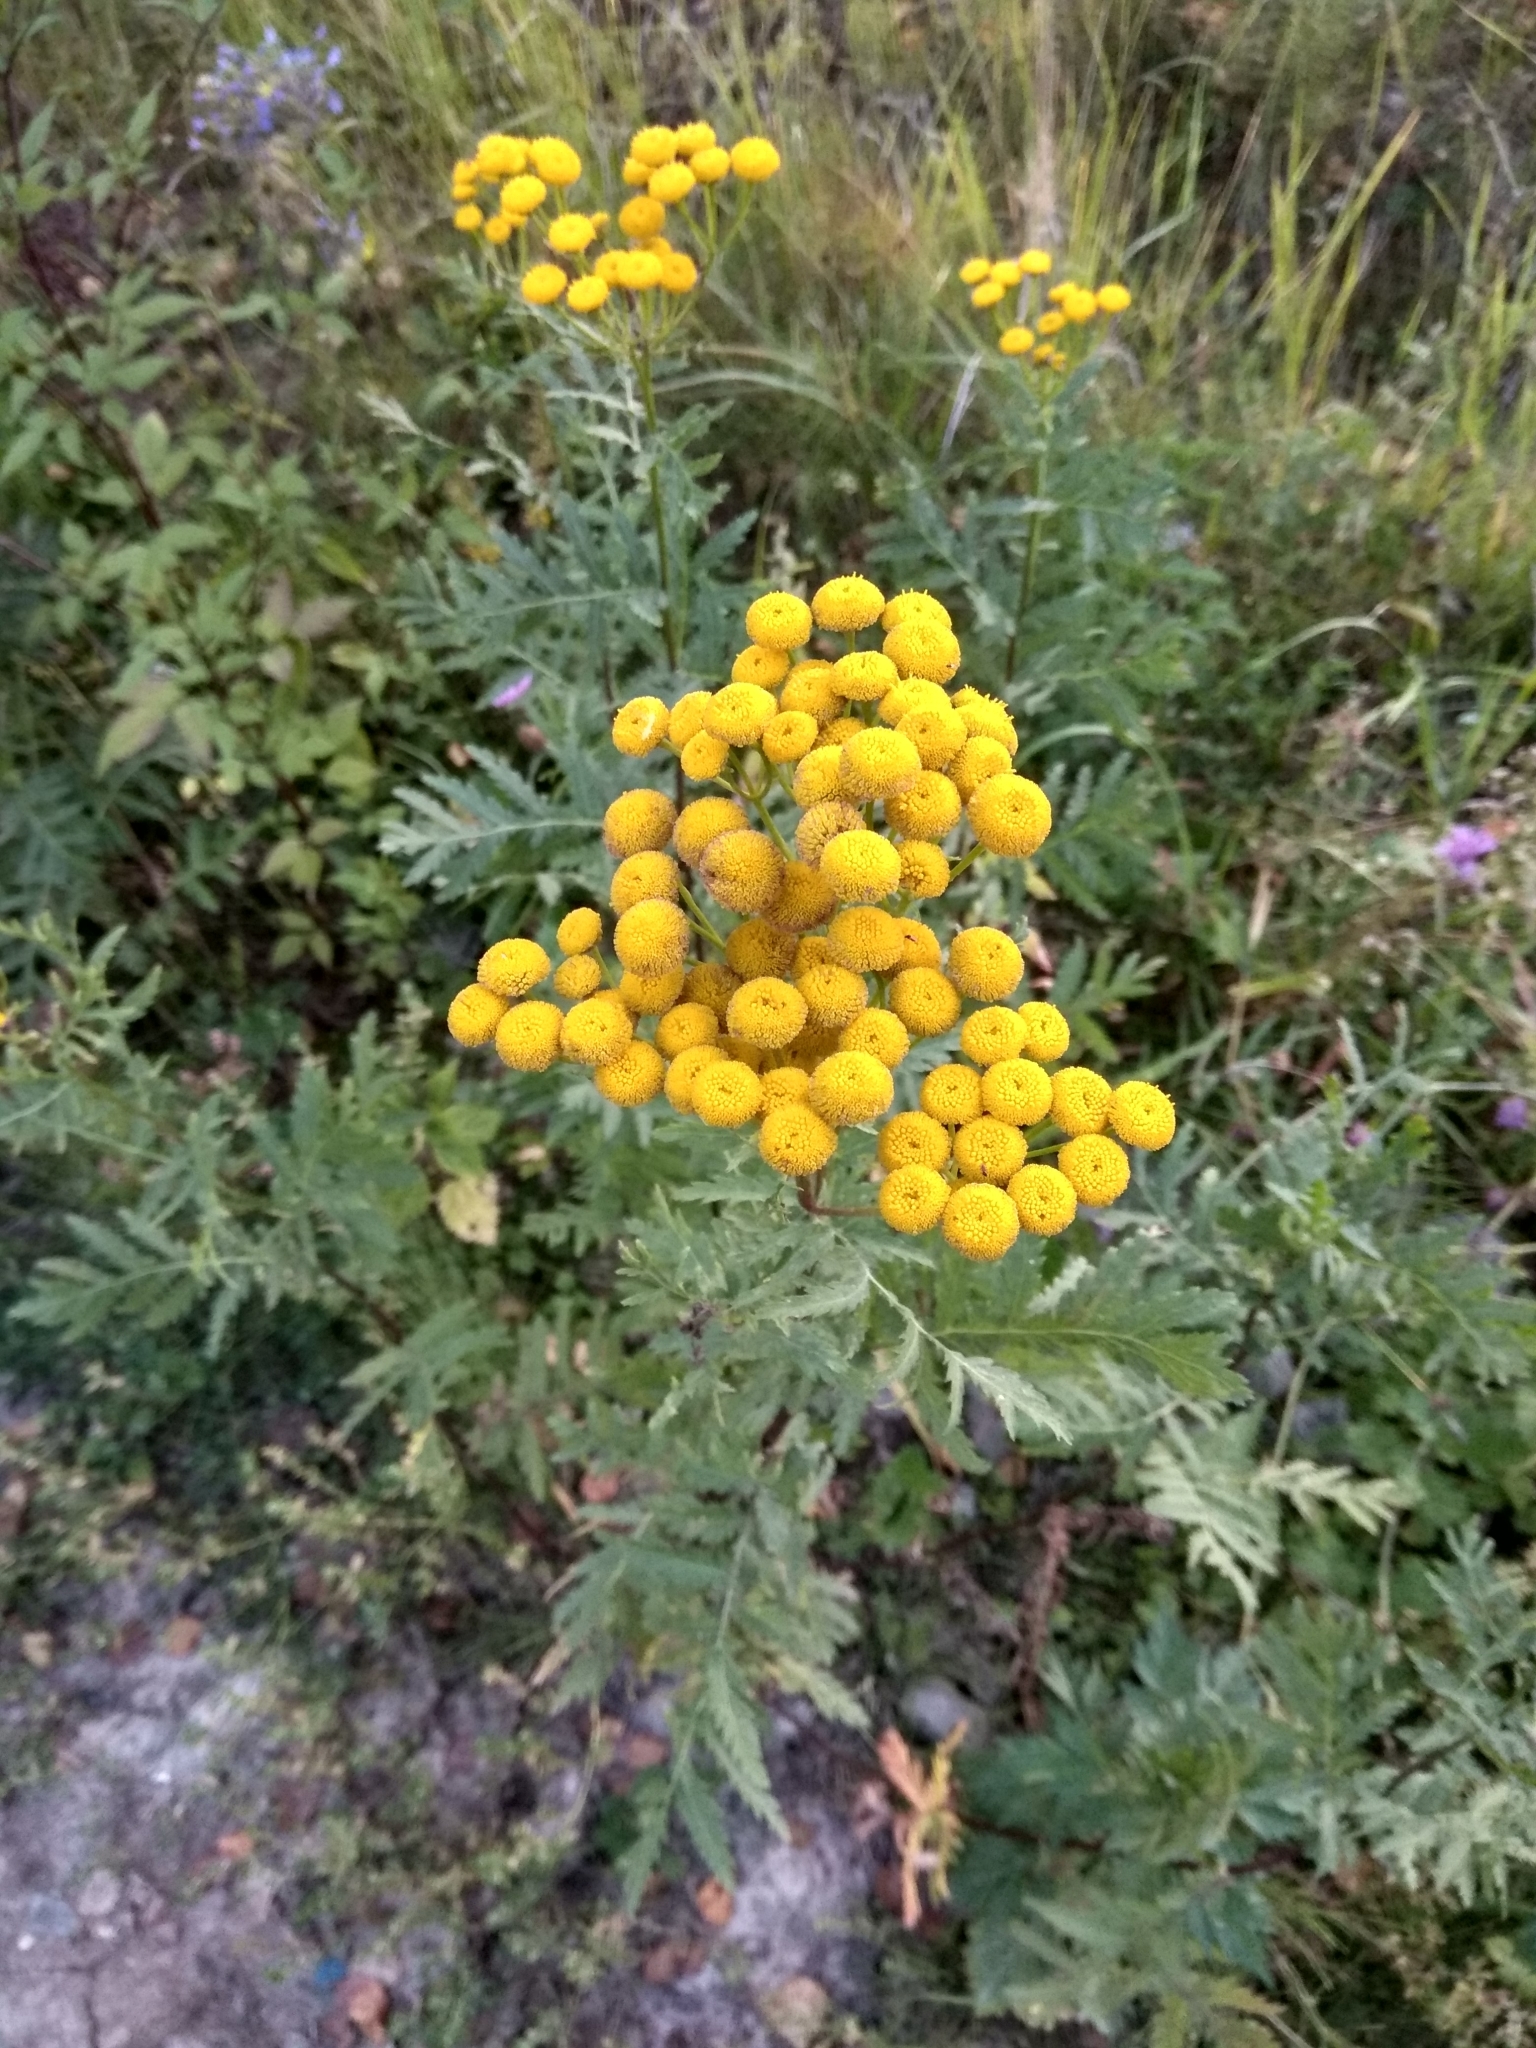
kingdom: Plantae
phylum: Tracheophyta
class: Magnoliopsida
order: Asterales
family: Asteraceae
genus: Tanacetum
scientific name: Tanacetum vulgare
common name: Common tansy
